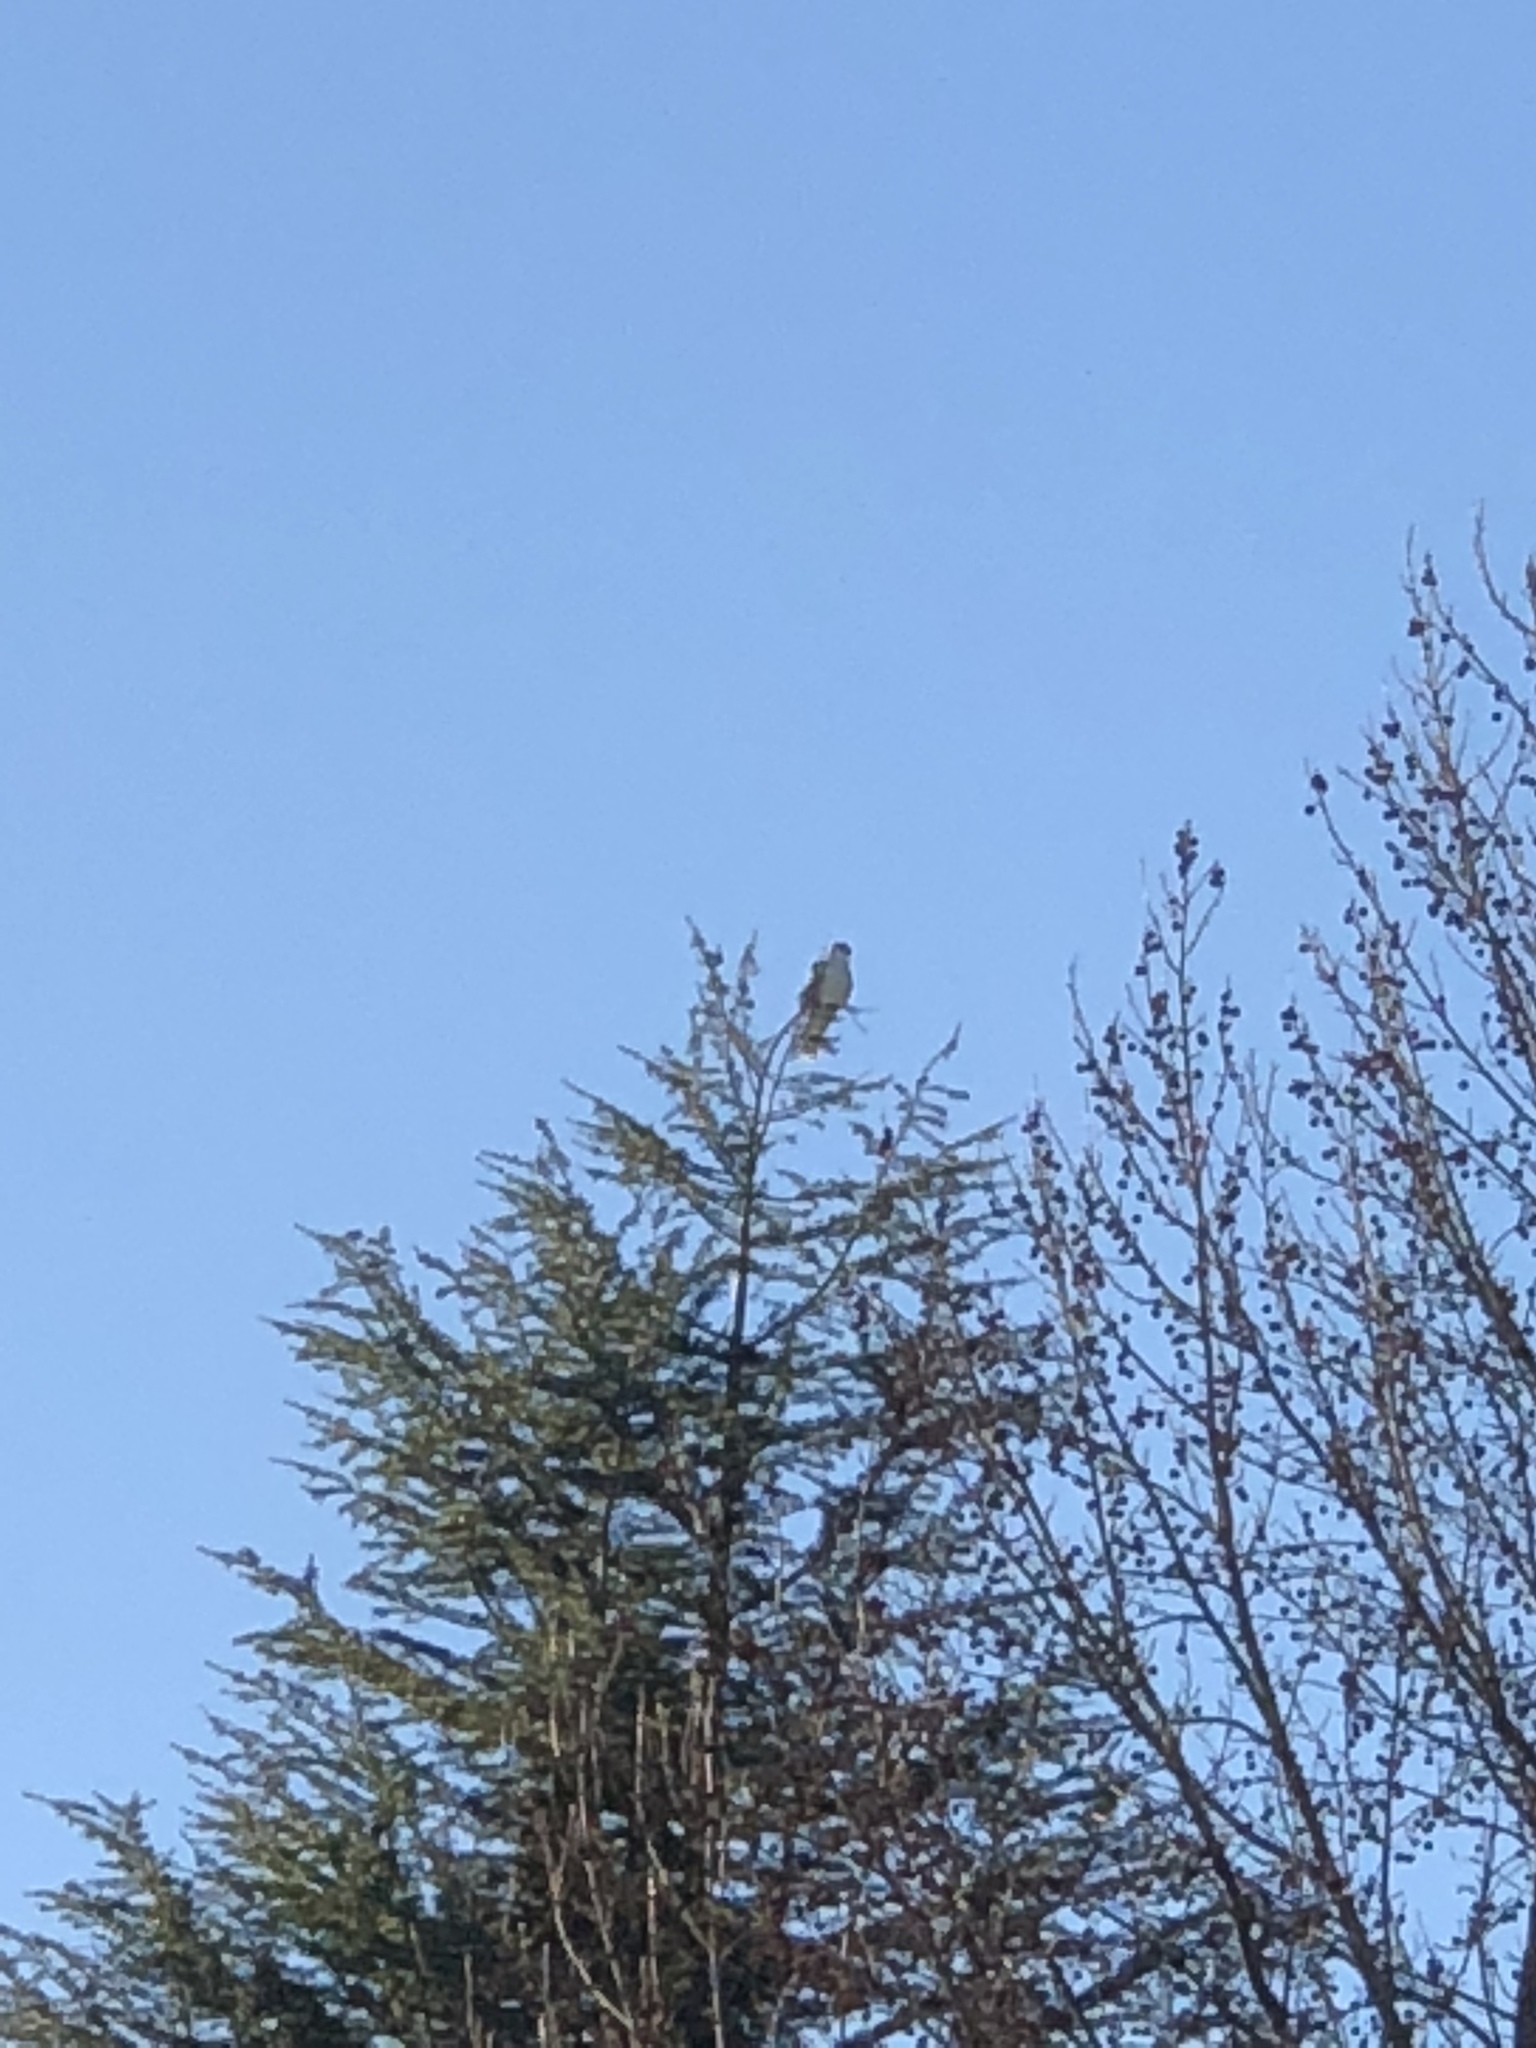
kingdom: Animalia
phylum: Chordata
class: Aves
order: Accipitriformes
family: Accipitridae
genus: Elanus
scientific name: Elanus leucurus
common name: White-tailed kite
